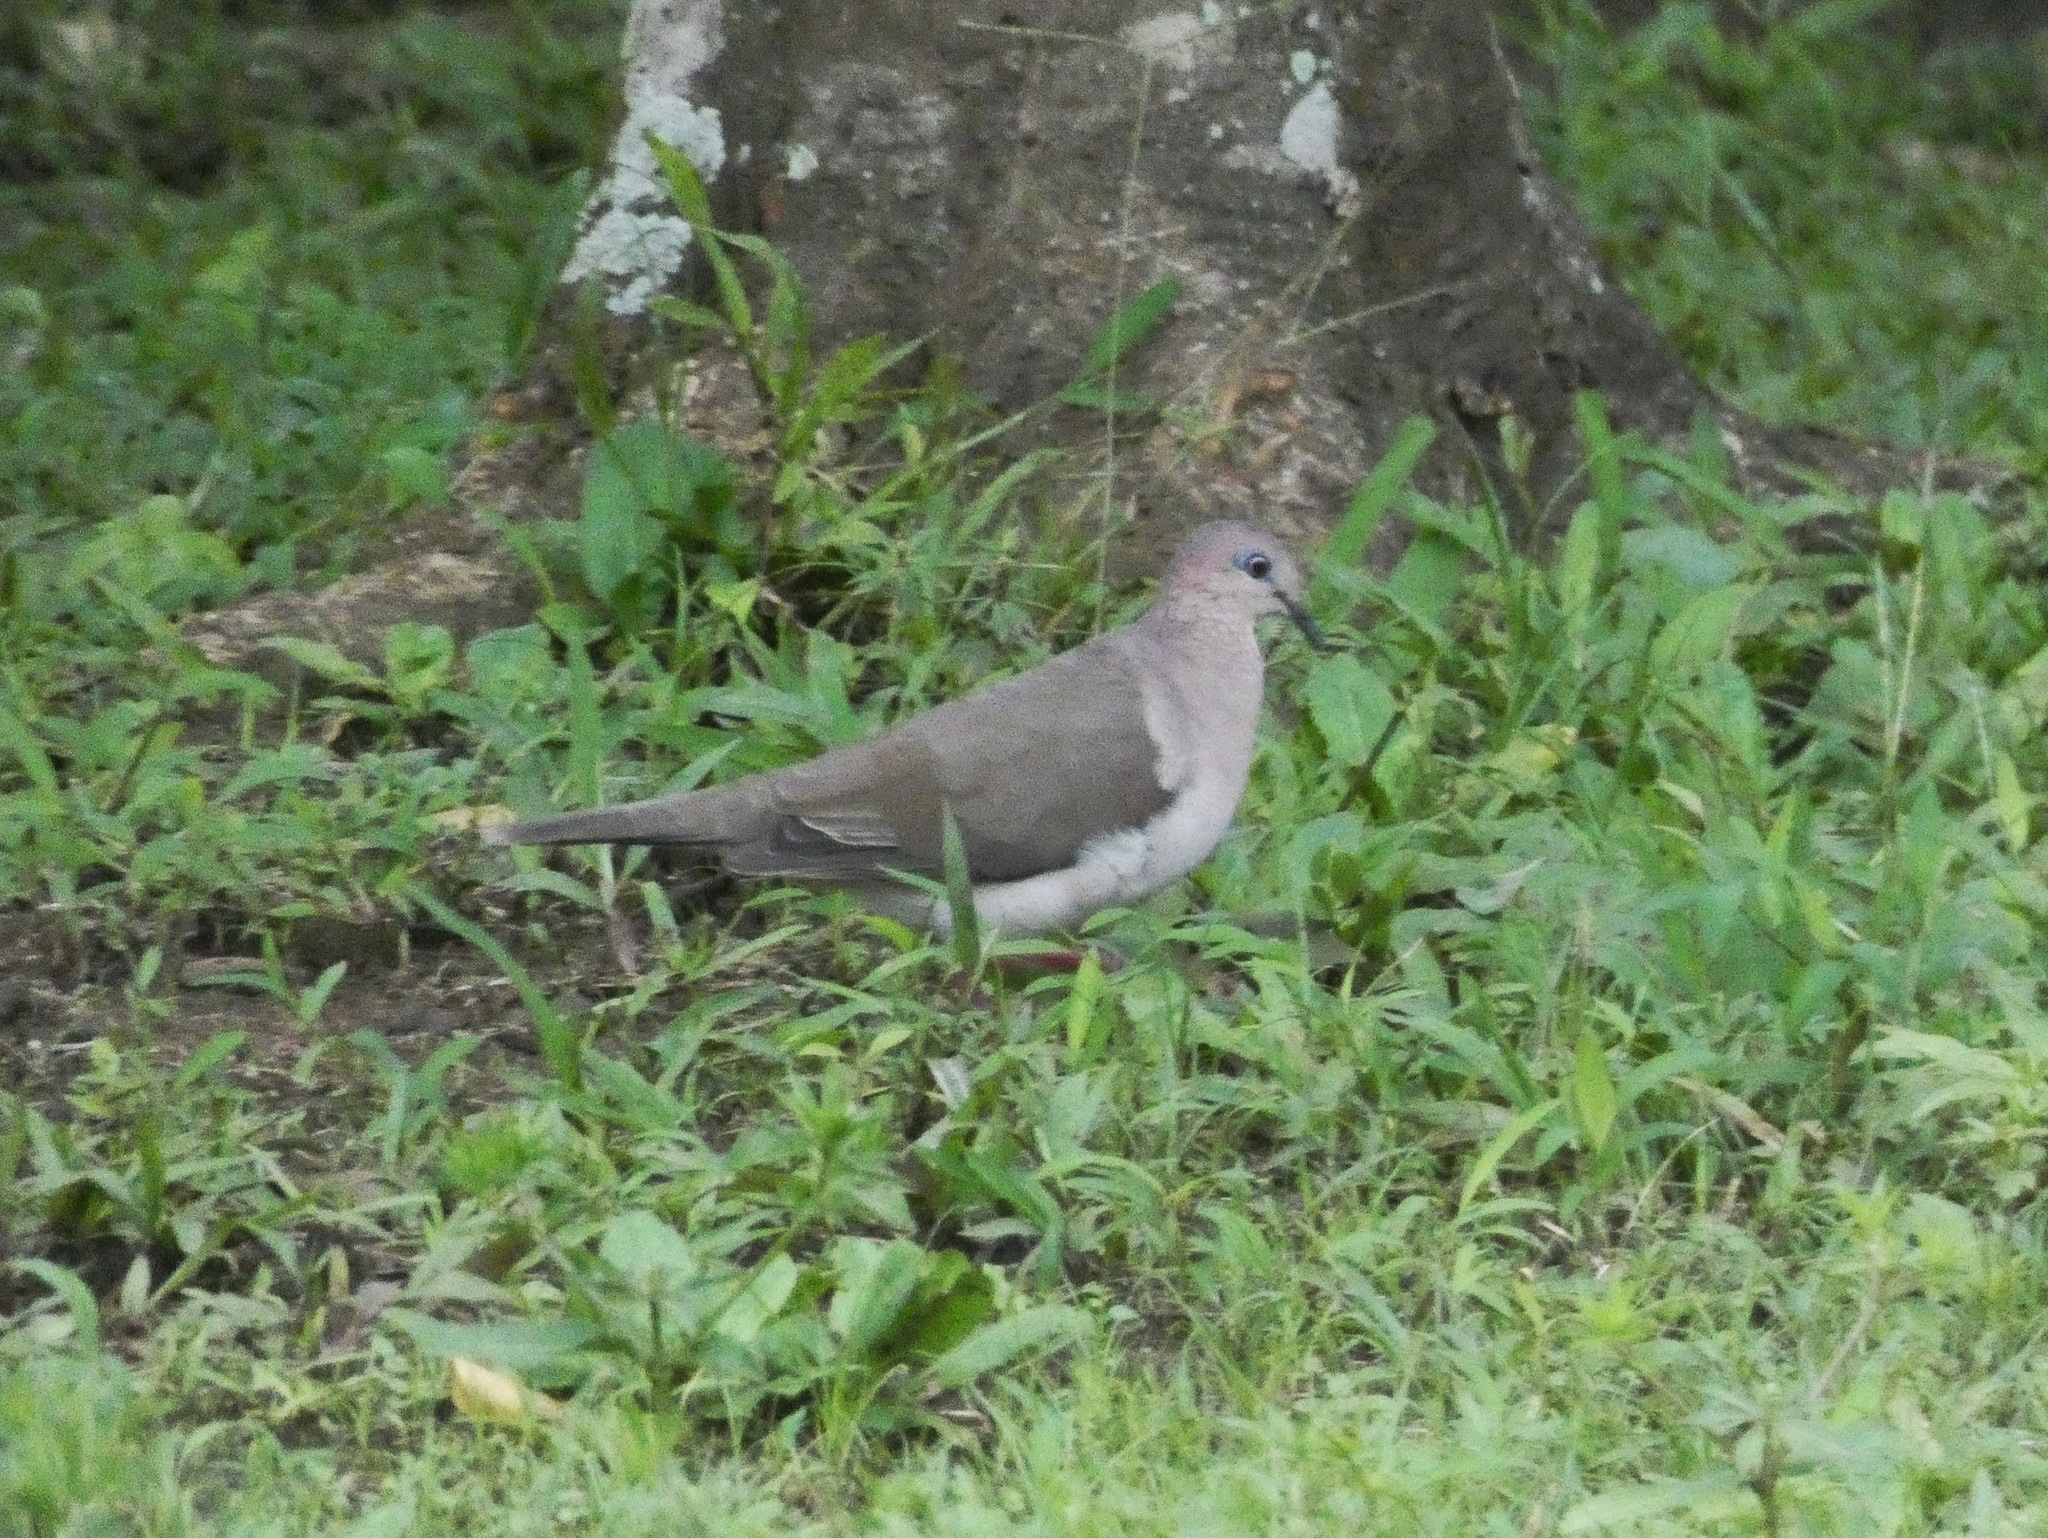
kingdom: Animalia
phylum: Chordata
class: Aves
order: Columbiformes
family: Columbidae
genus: Leptotila
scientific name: Leptotila verreauxi
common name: White-tipped dove
